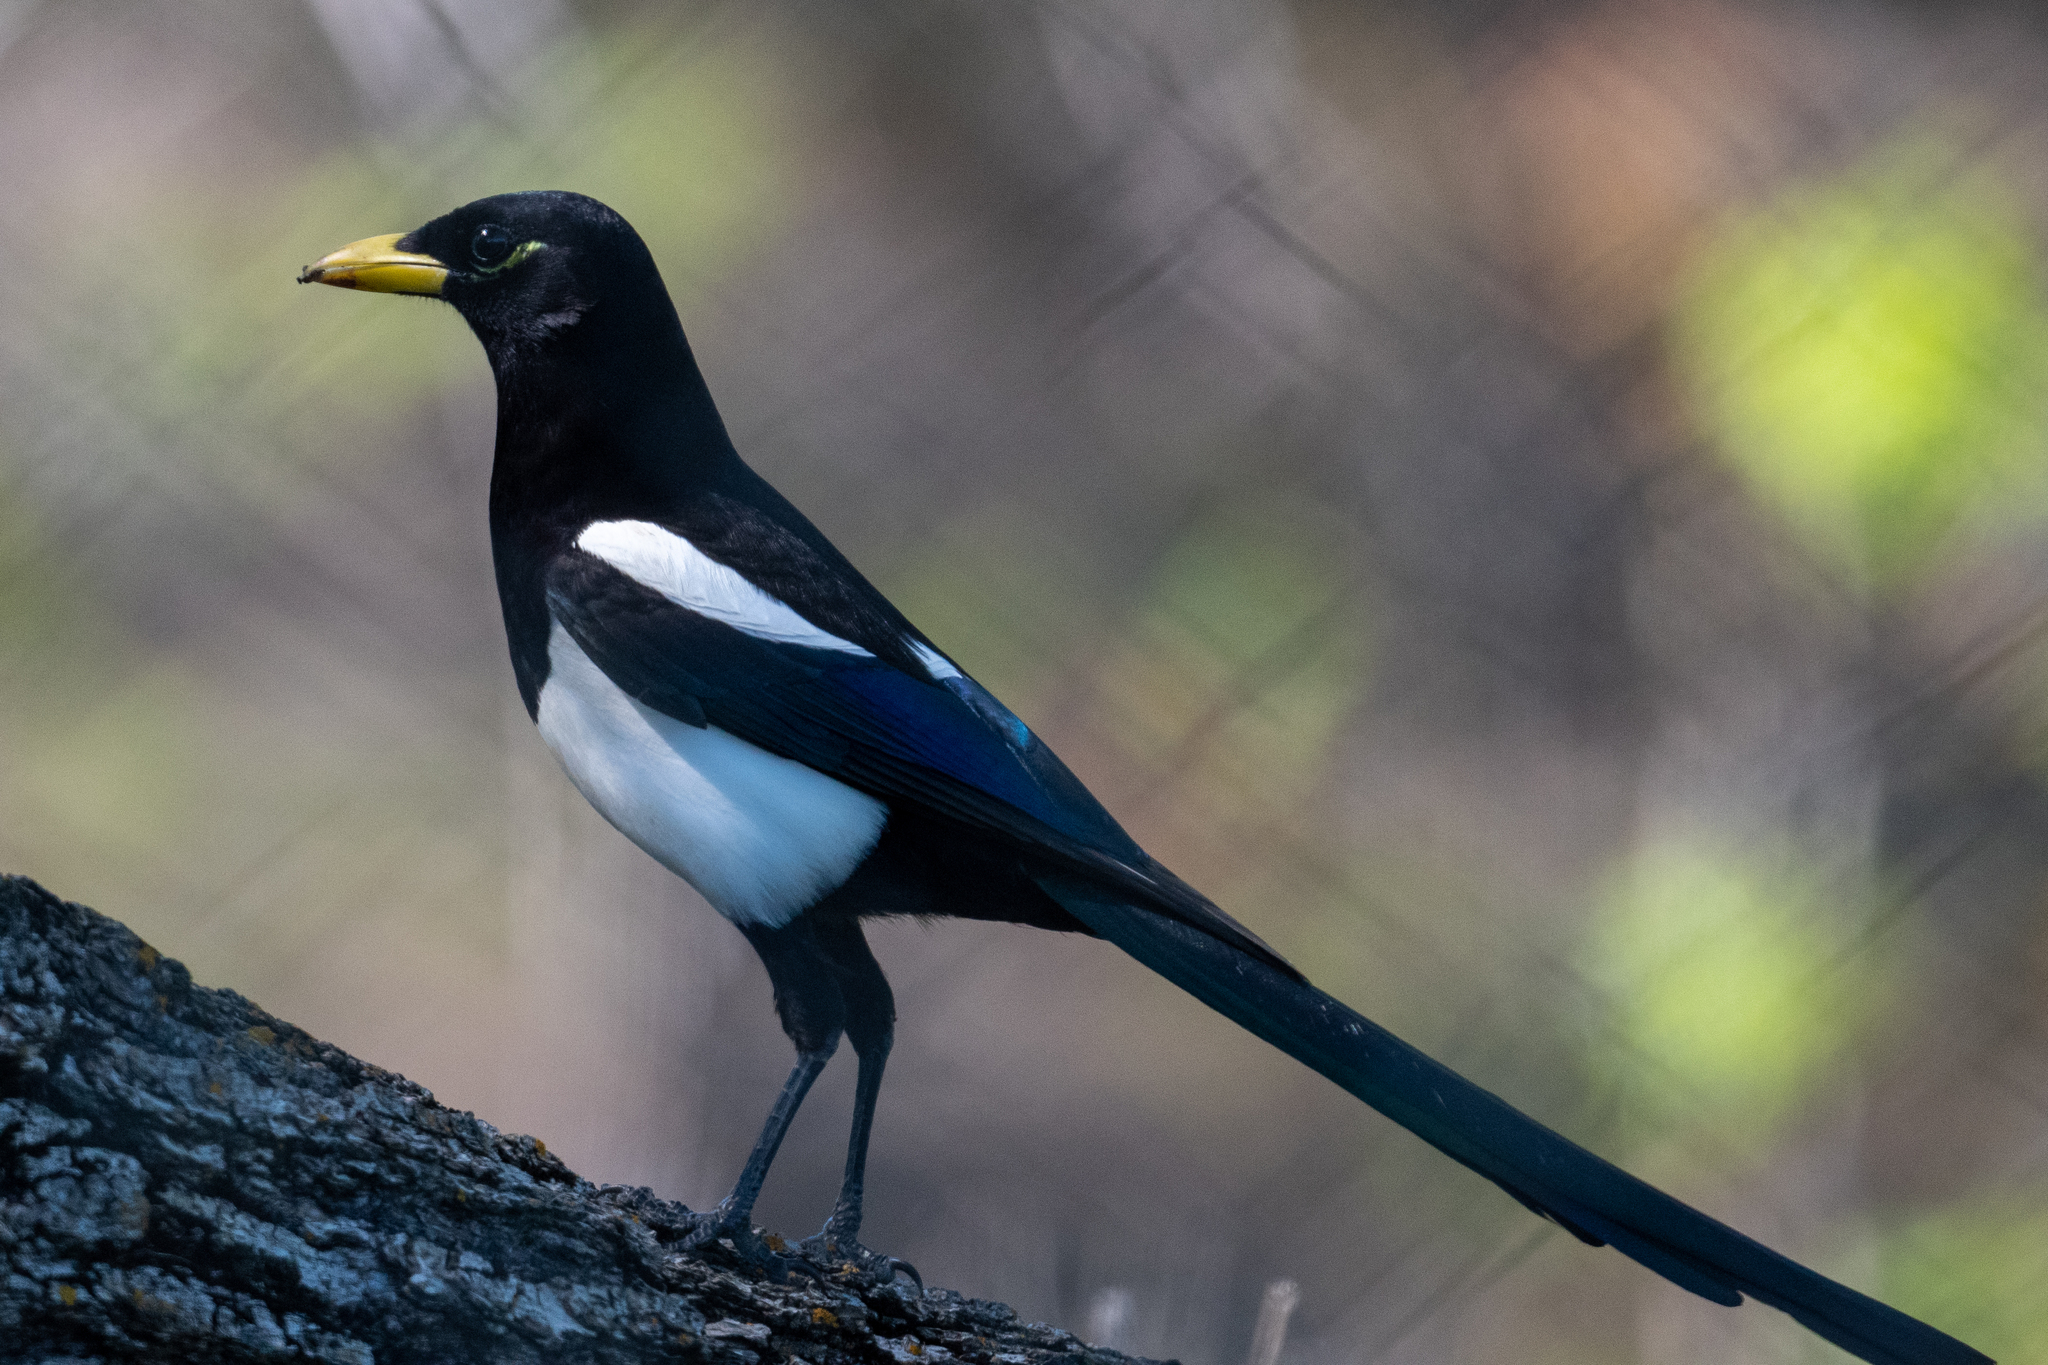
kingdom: Animalia
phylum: Chordata
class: Aves
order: Passeriformes
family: Corvidae
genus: Pica
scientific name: Pica nuttalli
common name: Yellow-billed magpie
